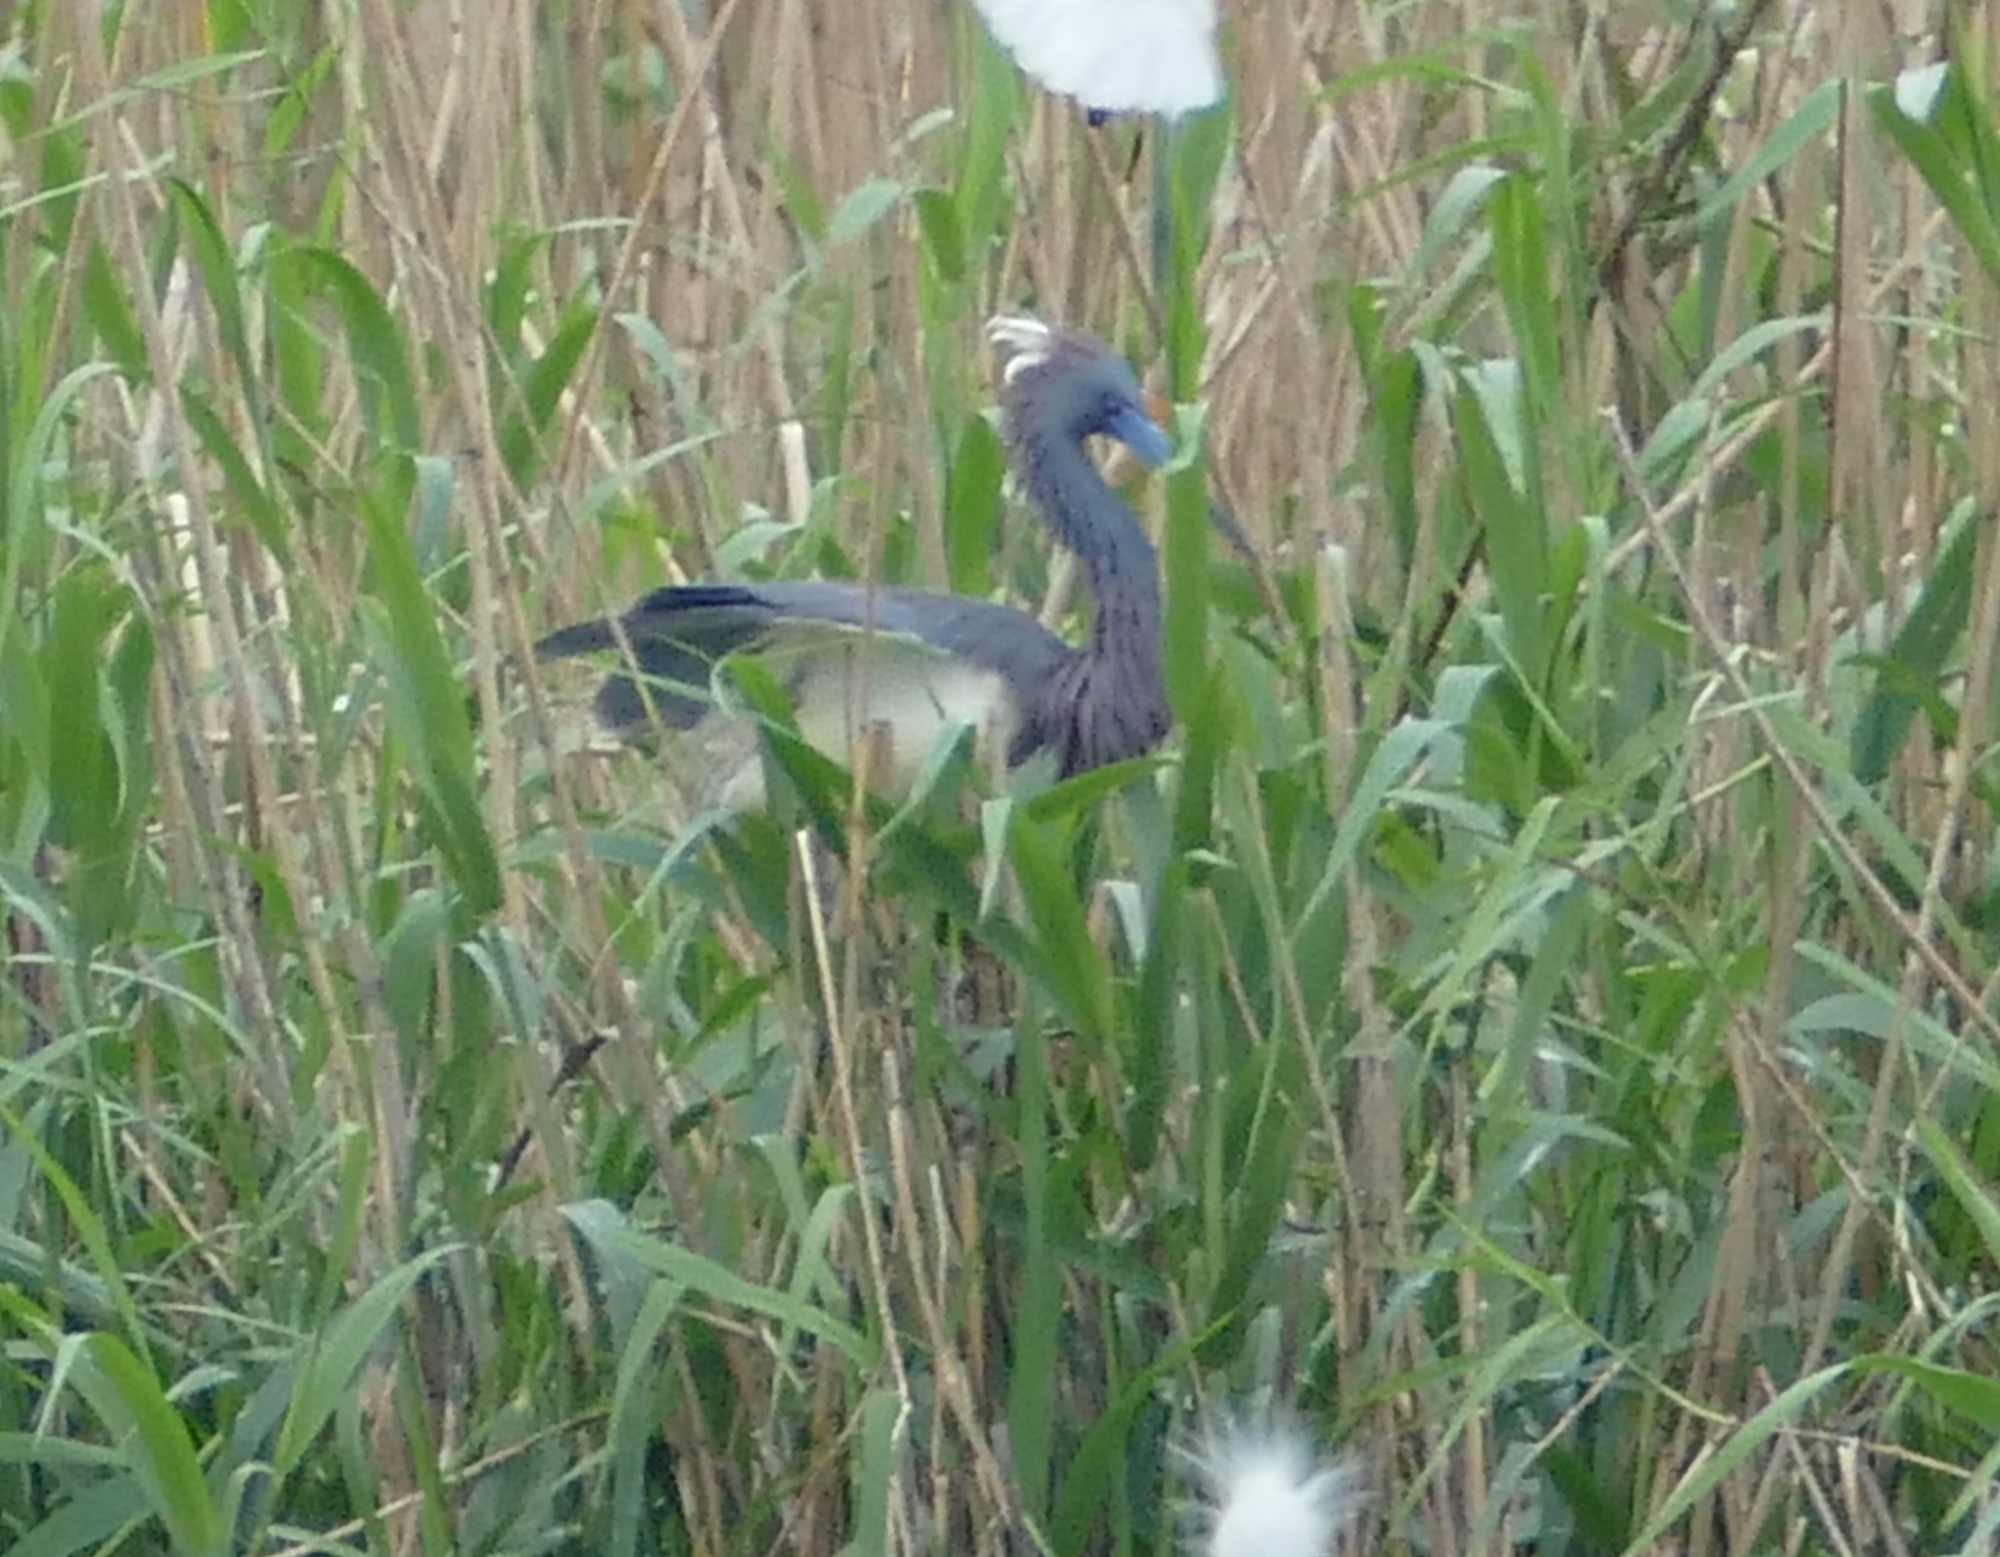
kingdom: Animalia
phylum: Chordata
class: Aves
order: Pelecaniformes
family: Ardeidae
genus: Egretta
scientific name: Egretta tricolor
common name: Tricolored heron
